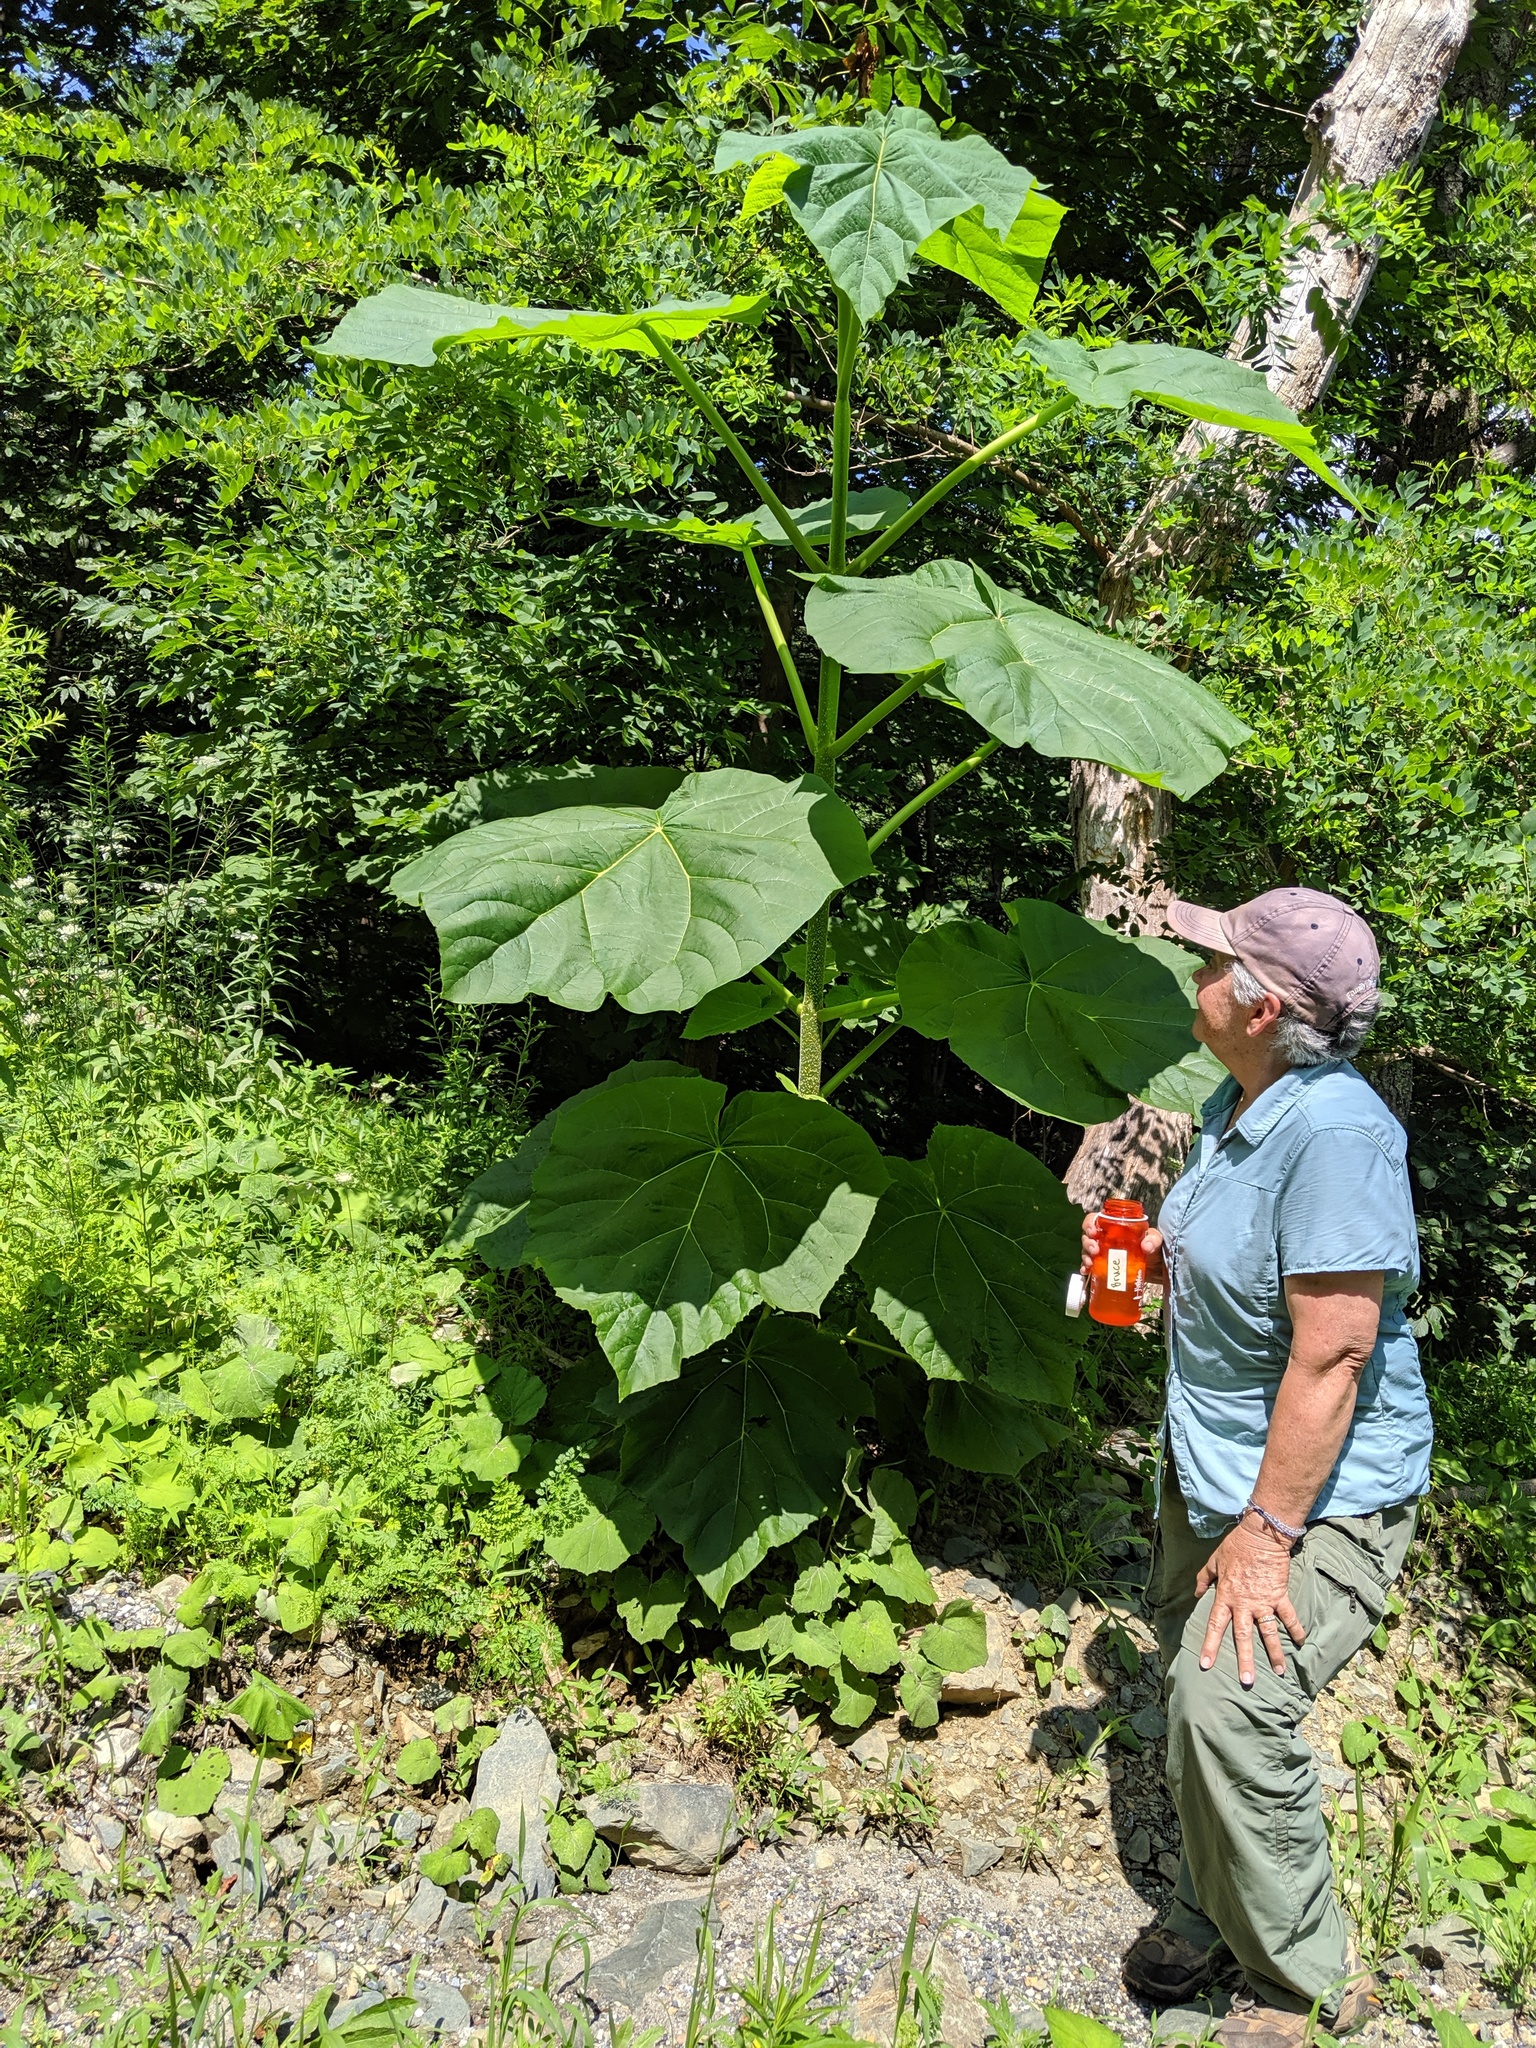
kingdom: Plantae
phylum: Tracheophyta
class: Magnoliopsida
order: Lamiales
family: Paulowniaceae
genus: Paulownia
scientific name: Paulownia tomentosa
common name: Foxglove-tree
